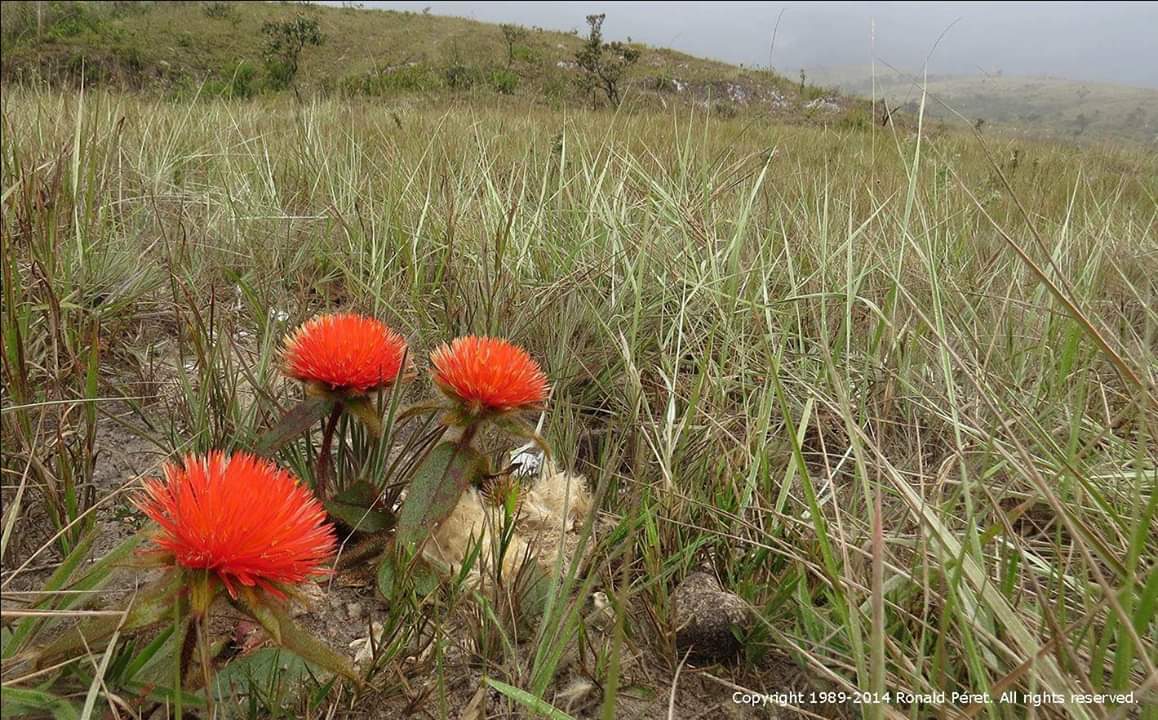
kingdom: Plantae
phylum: Tracheophyta
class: Magnoliopsida
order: Caryophyllales
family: Amaranthaceae
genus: Gomphrena
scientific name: Gomphrena arborescens
